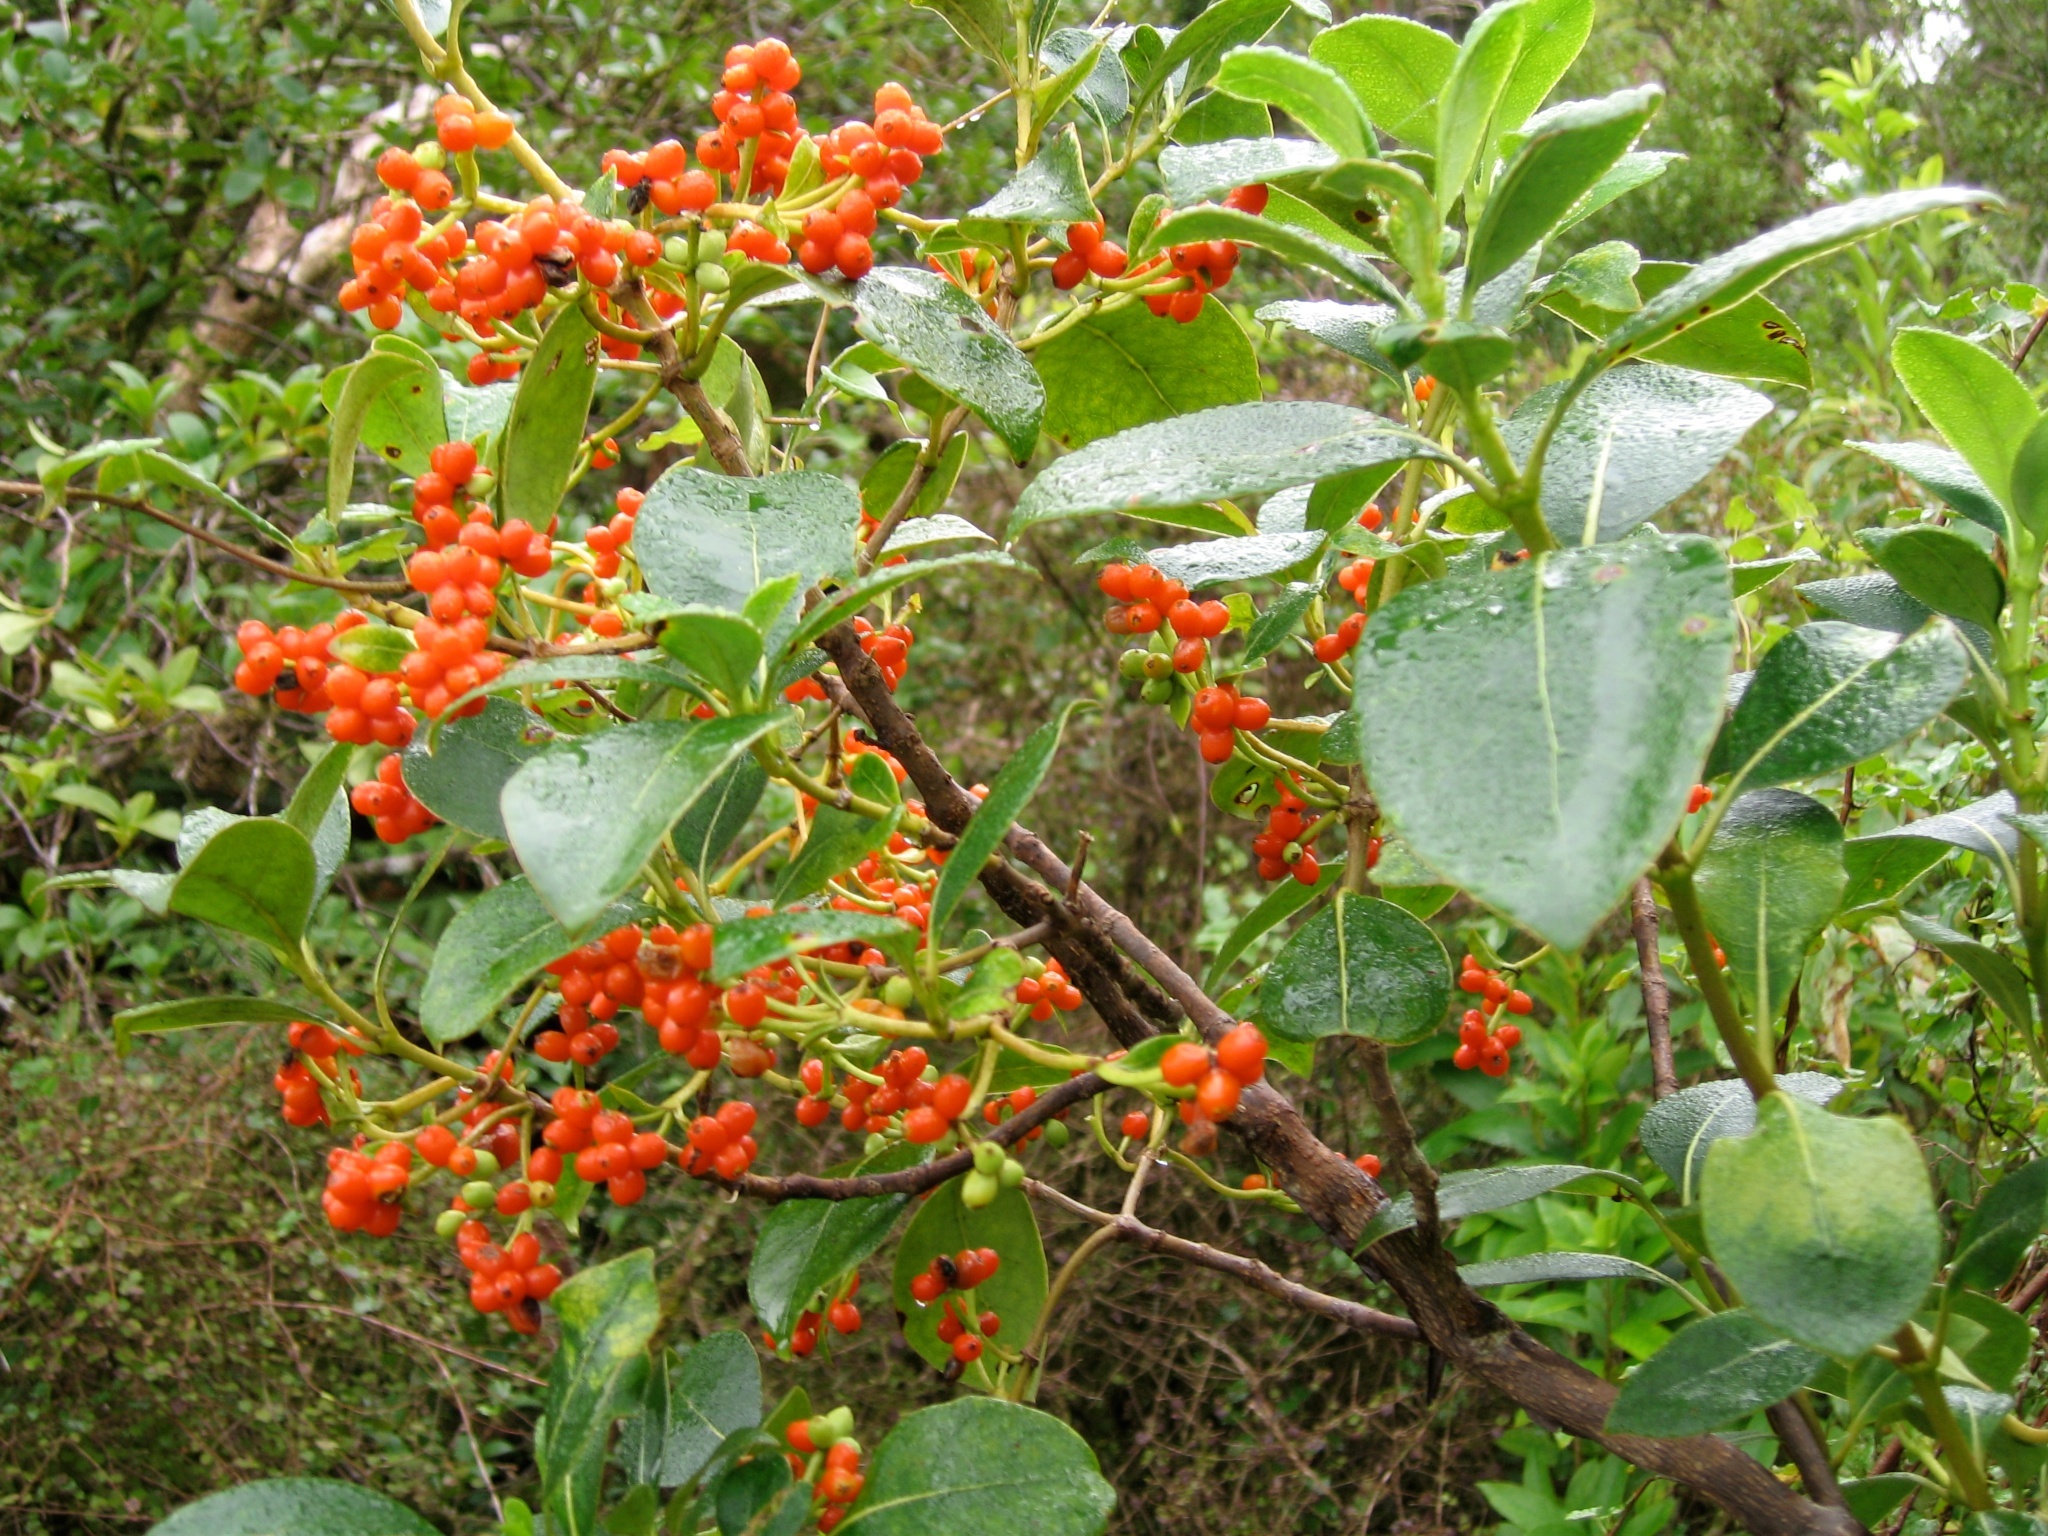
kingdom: Plantae
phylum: Tracheophyta
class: Magnoliopsida
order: Gentianales
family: Rubiaceae
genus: Coprosma
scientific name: Coprosma lucida
